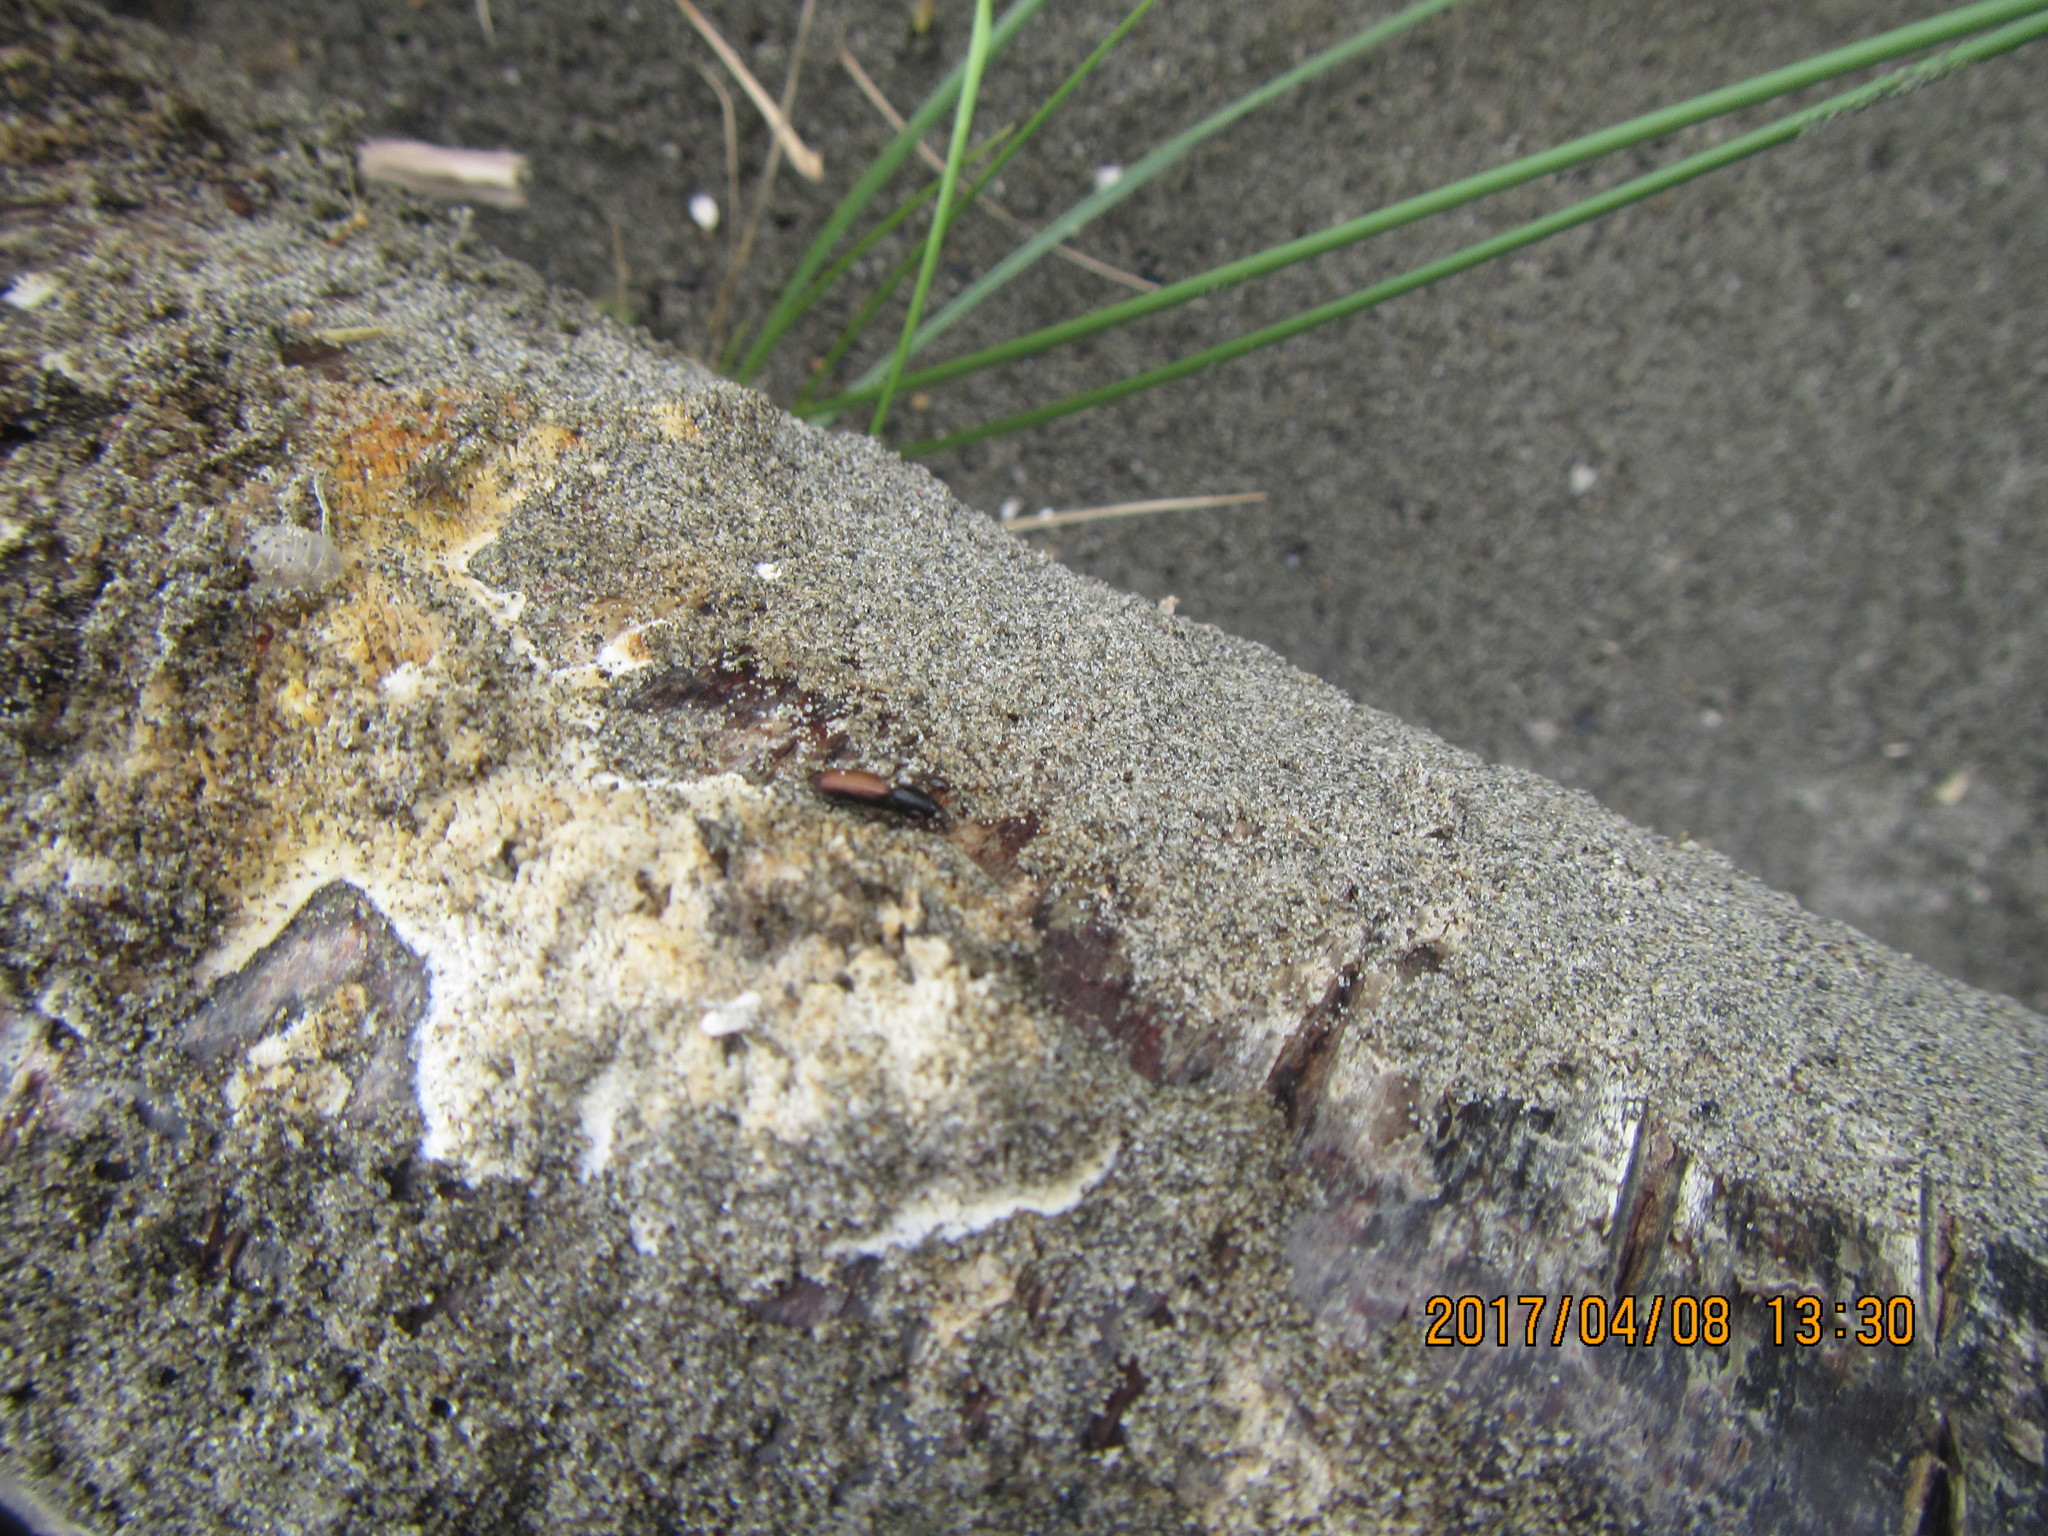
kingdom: Animalia
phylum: Arthropoda
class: Insecta
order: Coleoptera
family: Curculionidae
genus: Mesites
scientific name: Mesites pallidipennis
